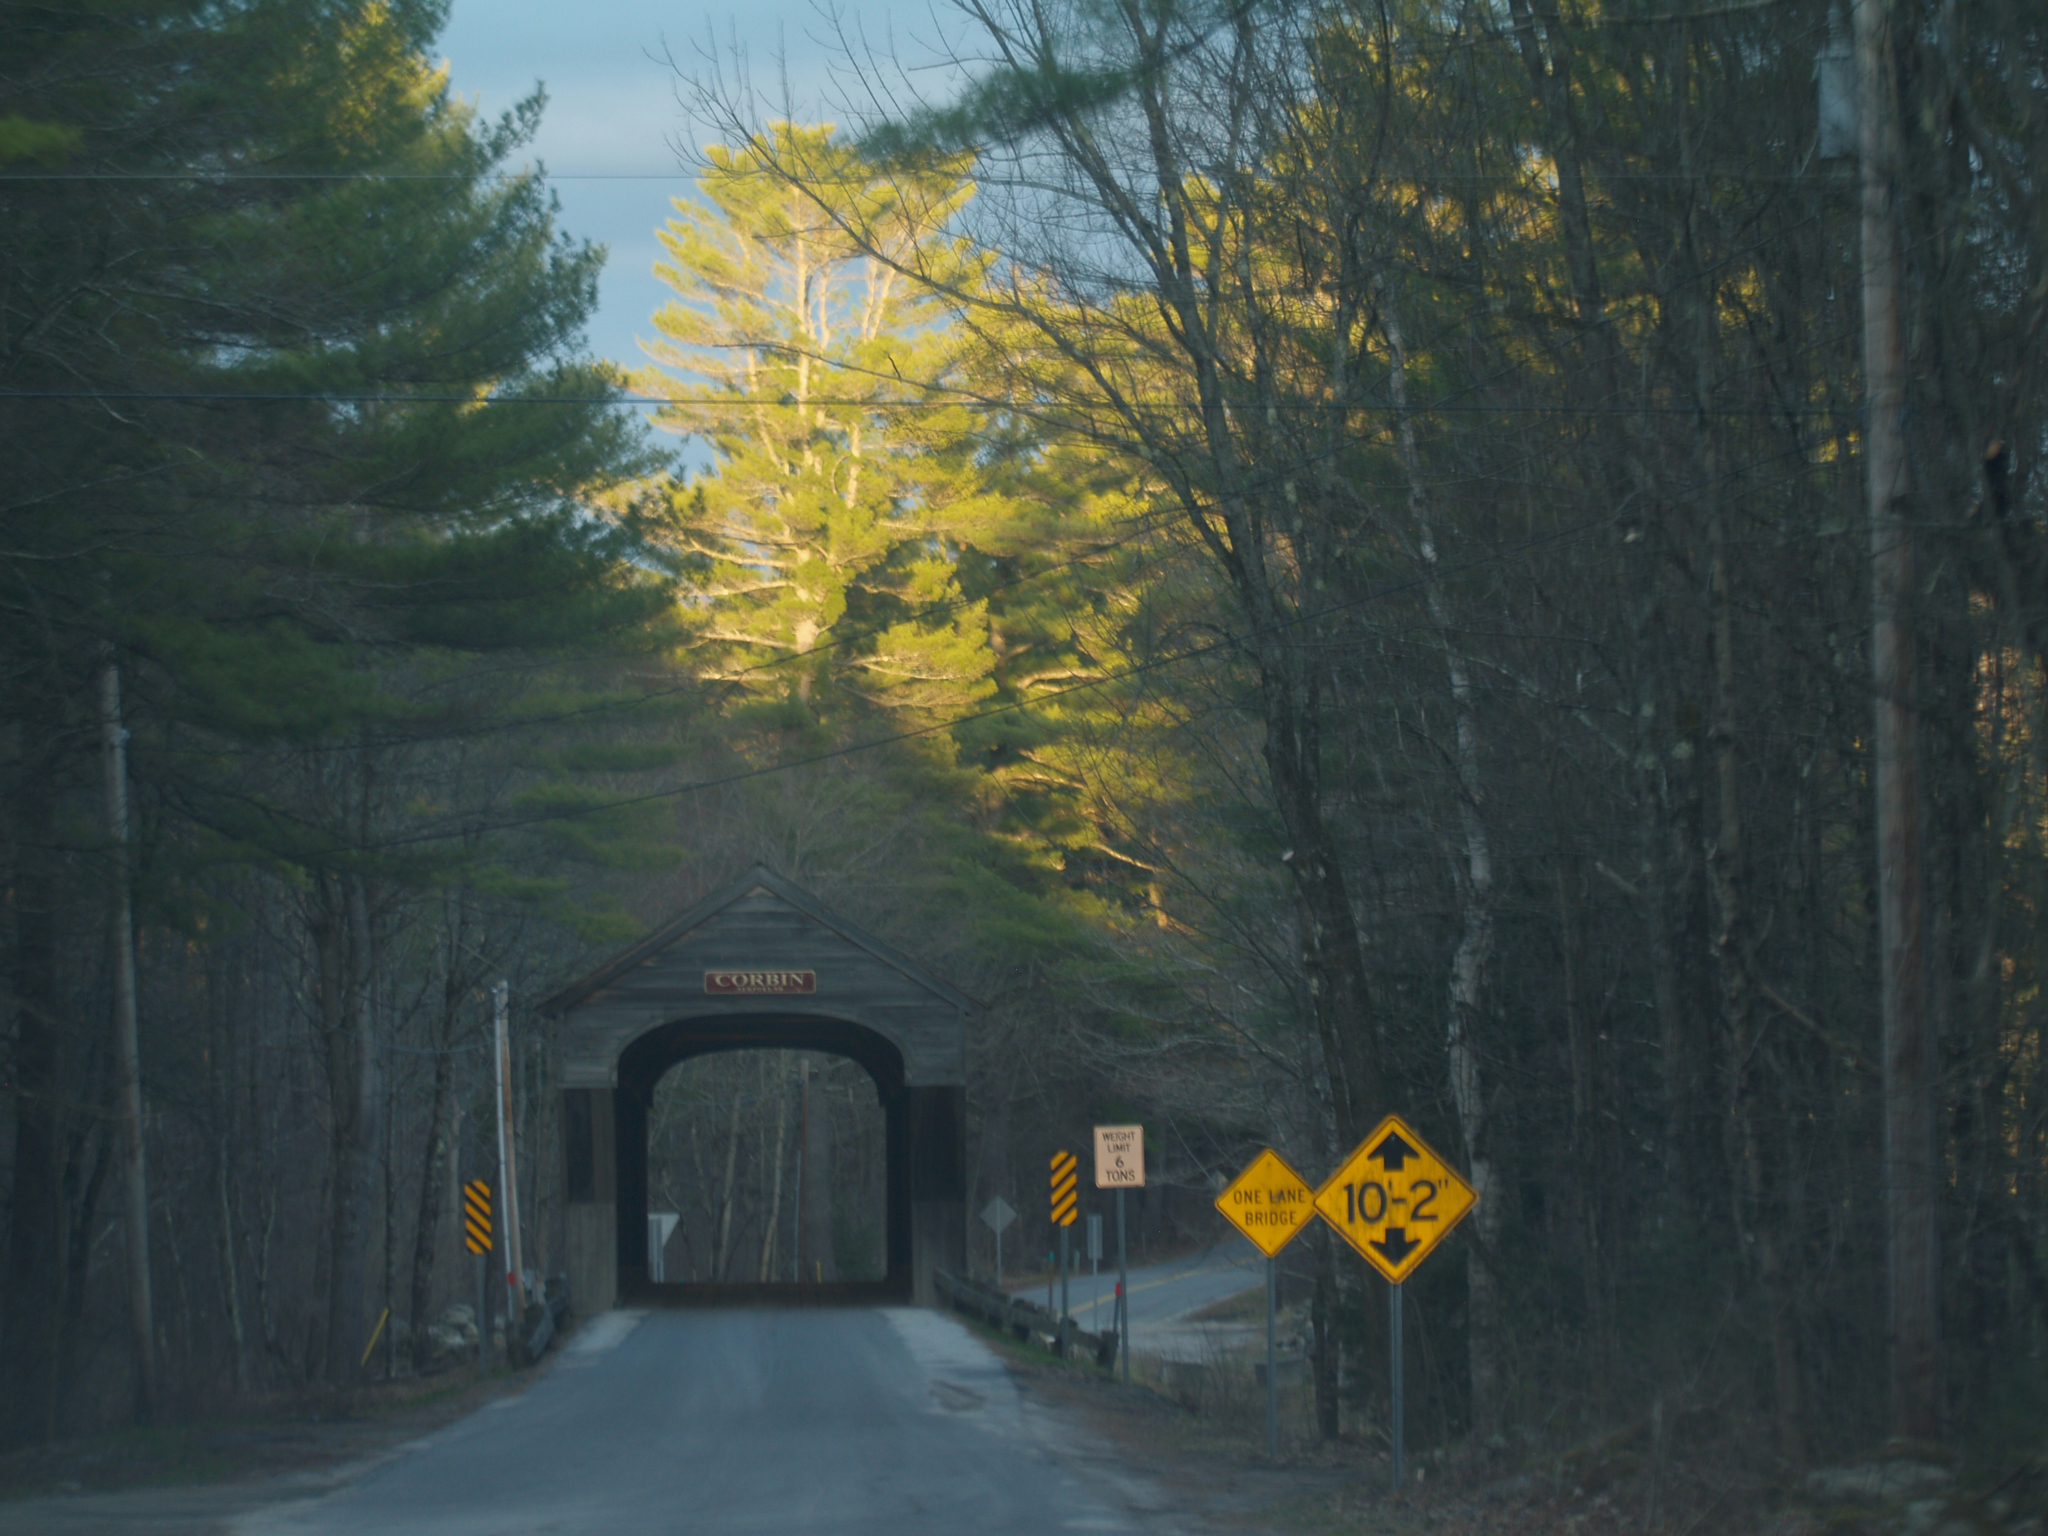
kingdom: Plantae
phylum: Tracheophyta
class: Pinopsida
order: Pinales
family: Pinaceae
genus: Pinus
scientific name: Pinus strobus
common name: Weymouth pine
